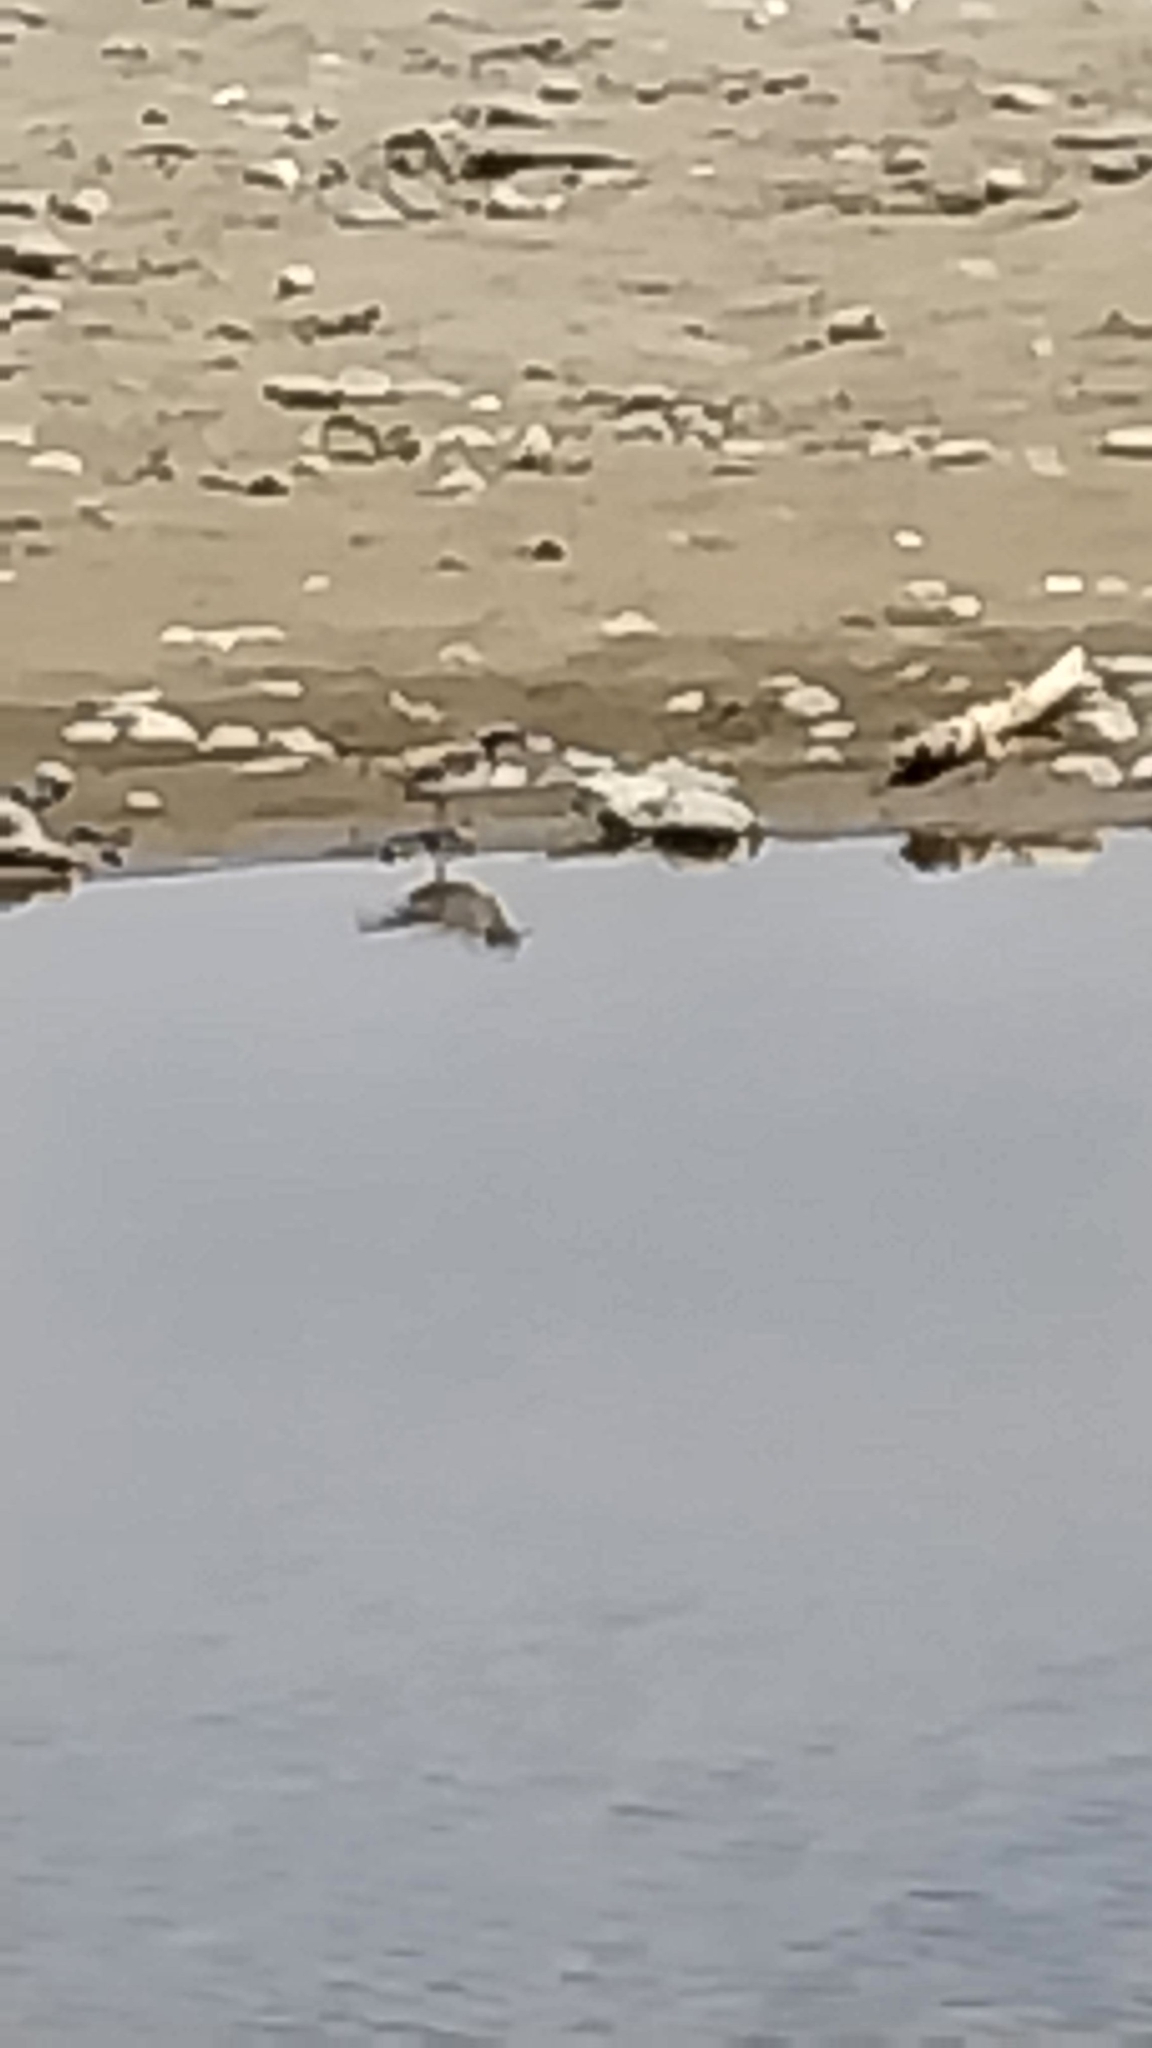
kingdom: Animalia
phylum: Chordata
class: Aves
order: Charadriiformes
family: Charadriidae
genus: Anarhynchus
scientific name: Anarhynchus
